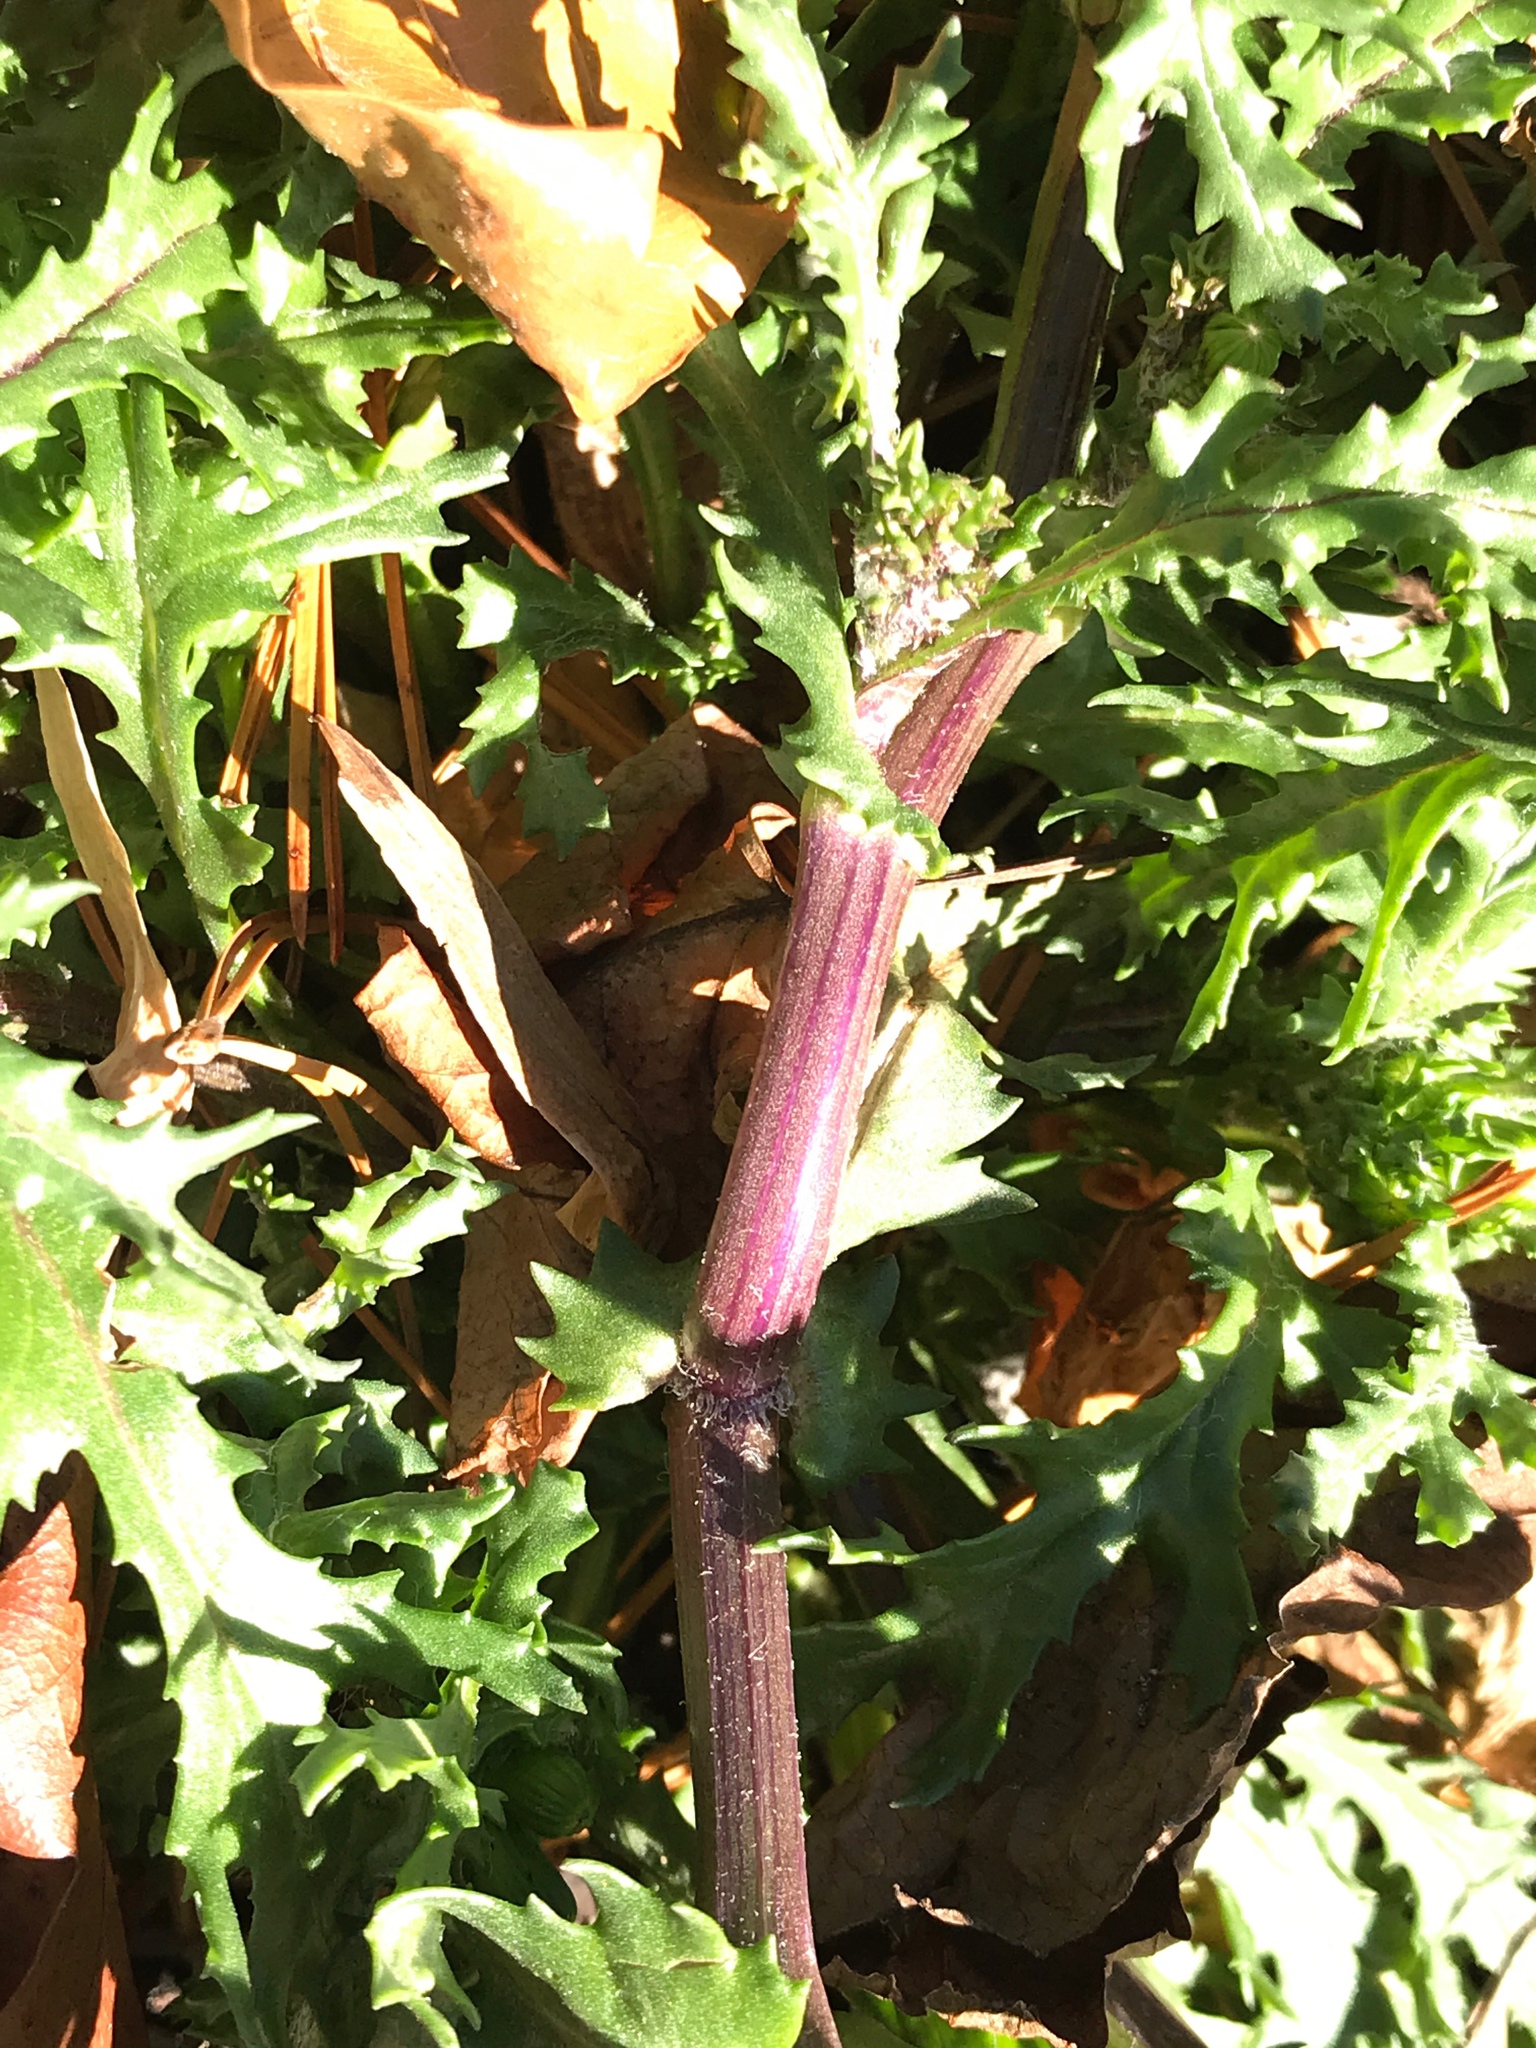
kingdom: Plantae
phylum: Tracheophyta
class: Magnoliopsida
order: Asterales
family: Asteraceae
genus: Senecio
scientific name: Senecio vulgaris
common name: Old-man-in-the-spring
